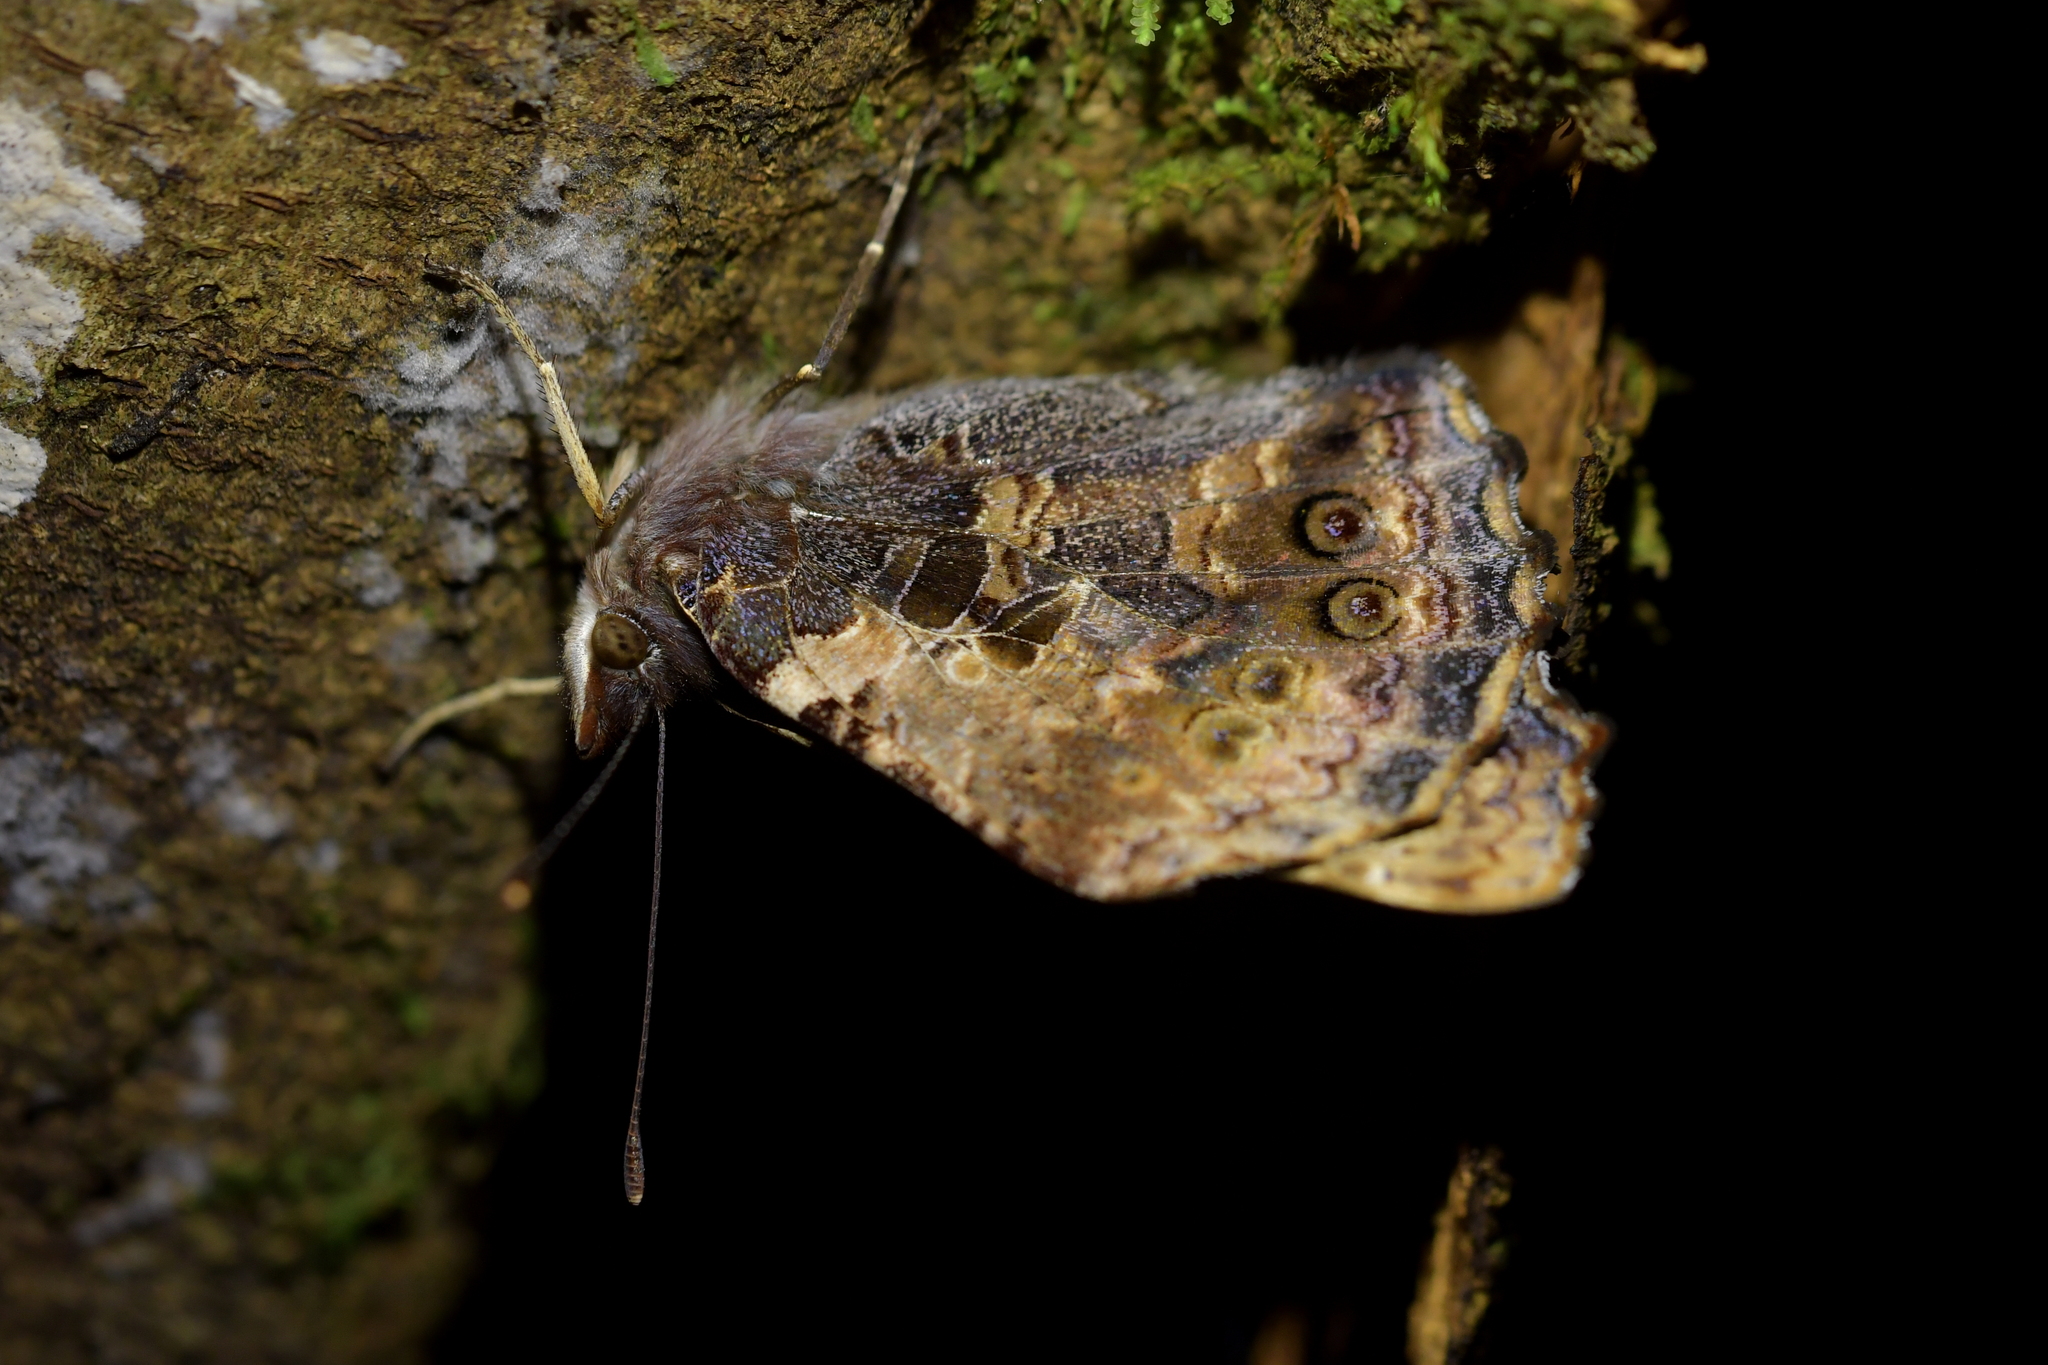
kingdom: Animalia
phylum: Arthropoda
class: Insecta
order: Lepidoptera
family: Nymphalidae
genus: Vanessa
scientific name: Vanessa gonerilla
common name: New zealand red admiral
